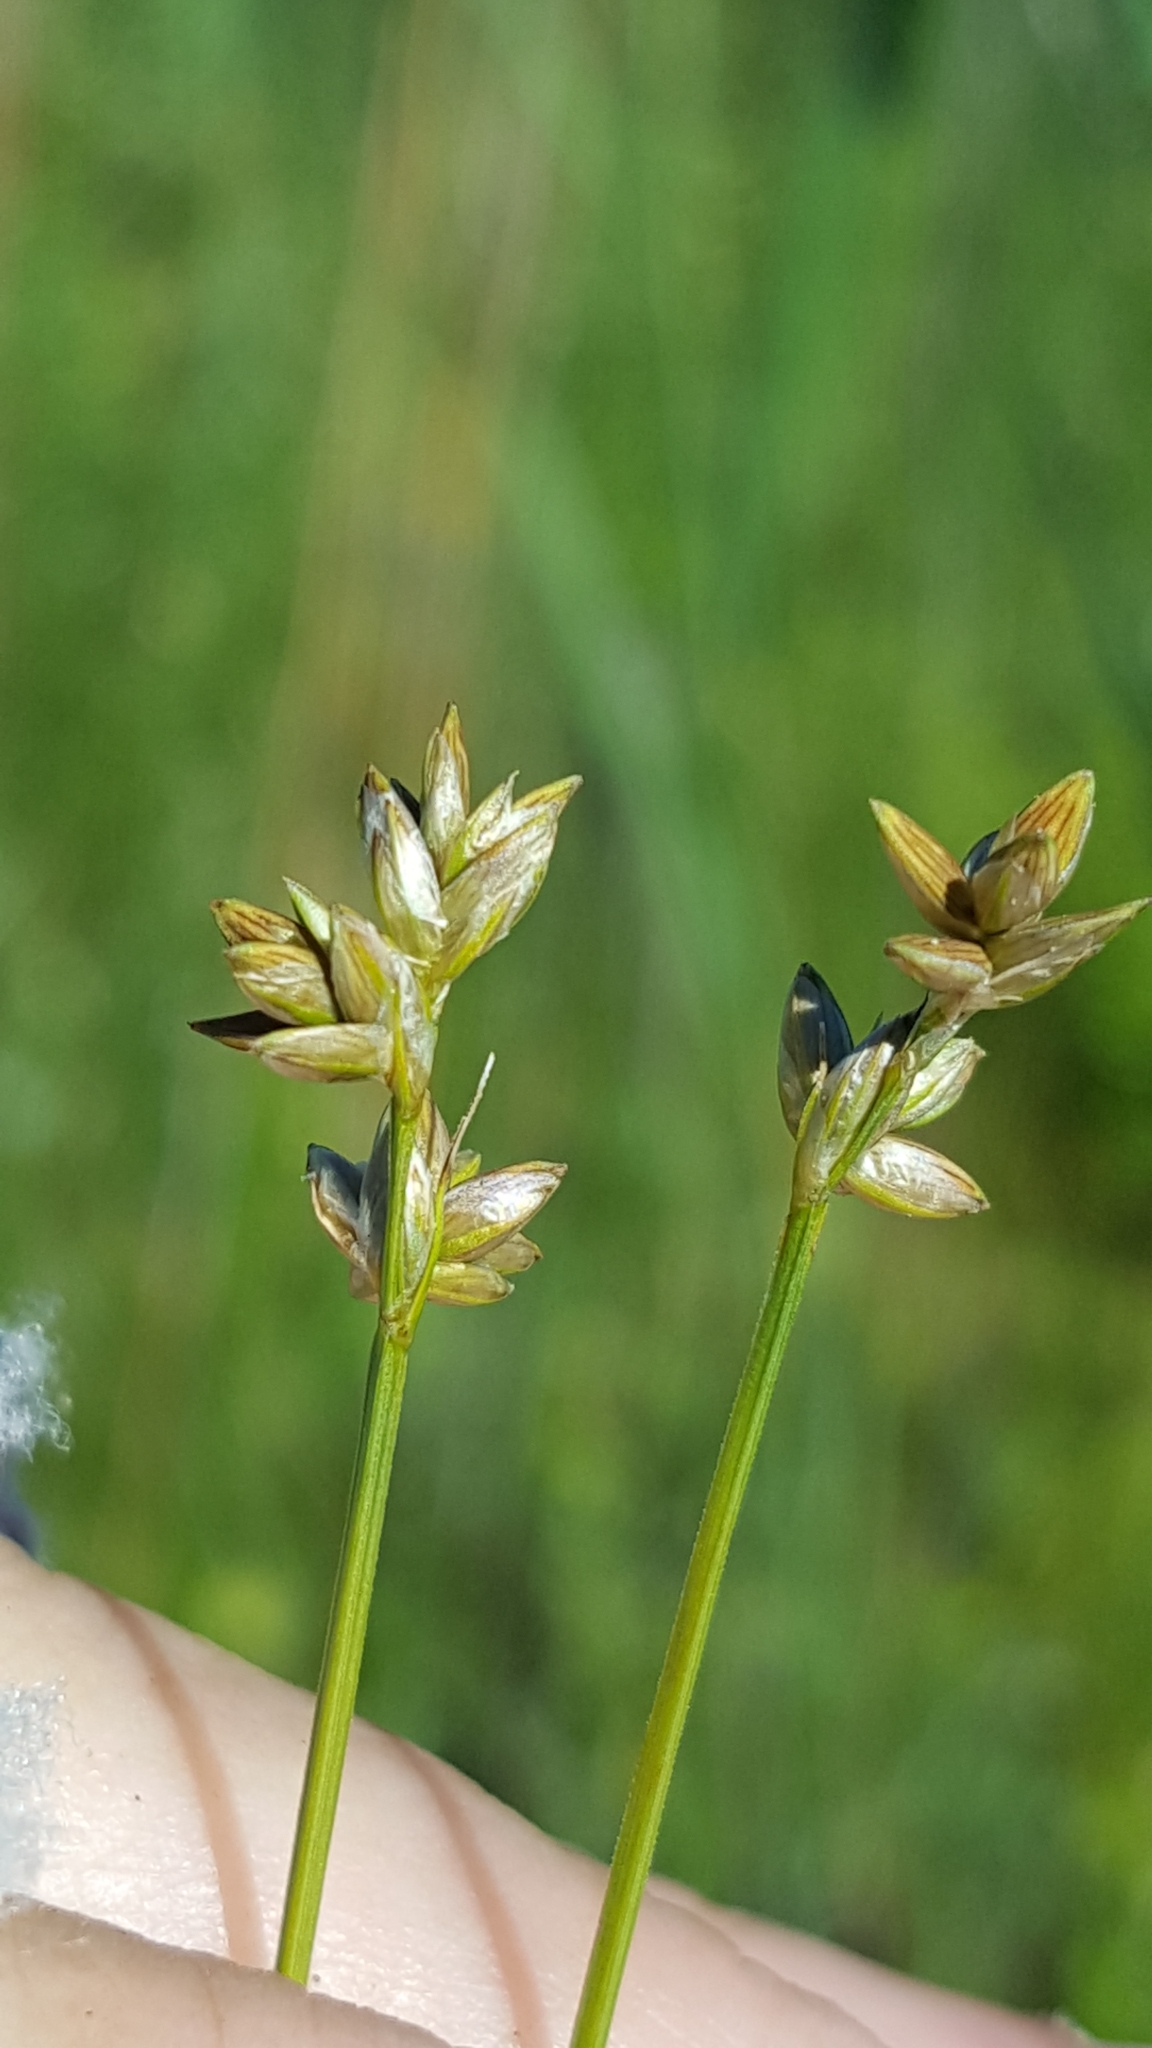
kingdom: Plantae
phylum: Tracheophyta
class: Liliopsida
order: Poales
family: Cyperaceae
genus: Carex
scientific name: Carex tenuiflora
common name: Sparse-flowered sedge
